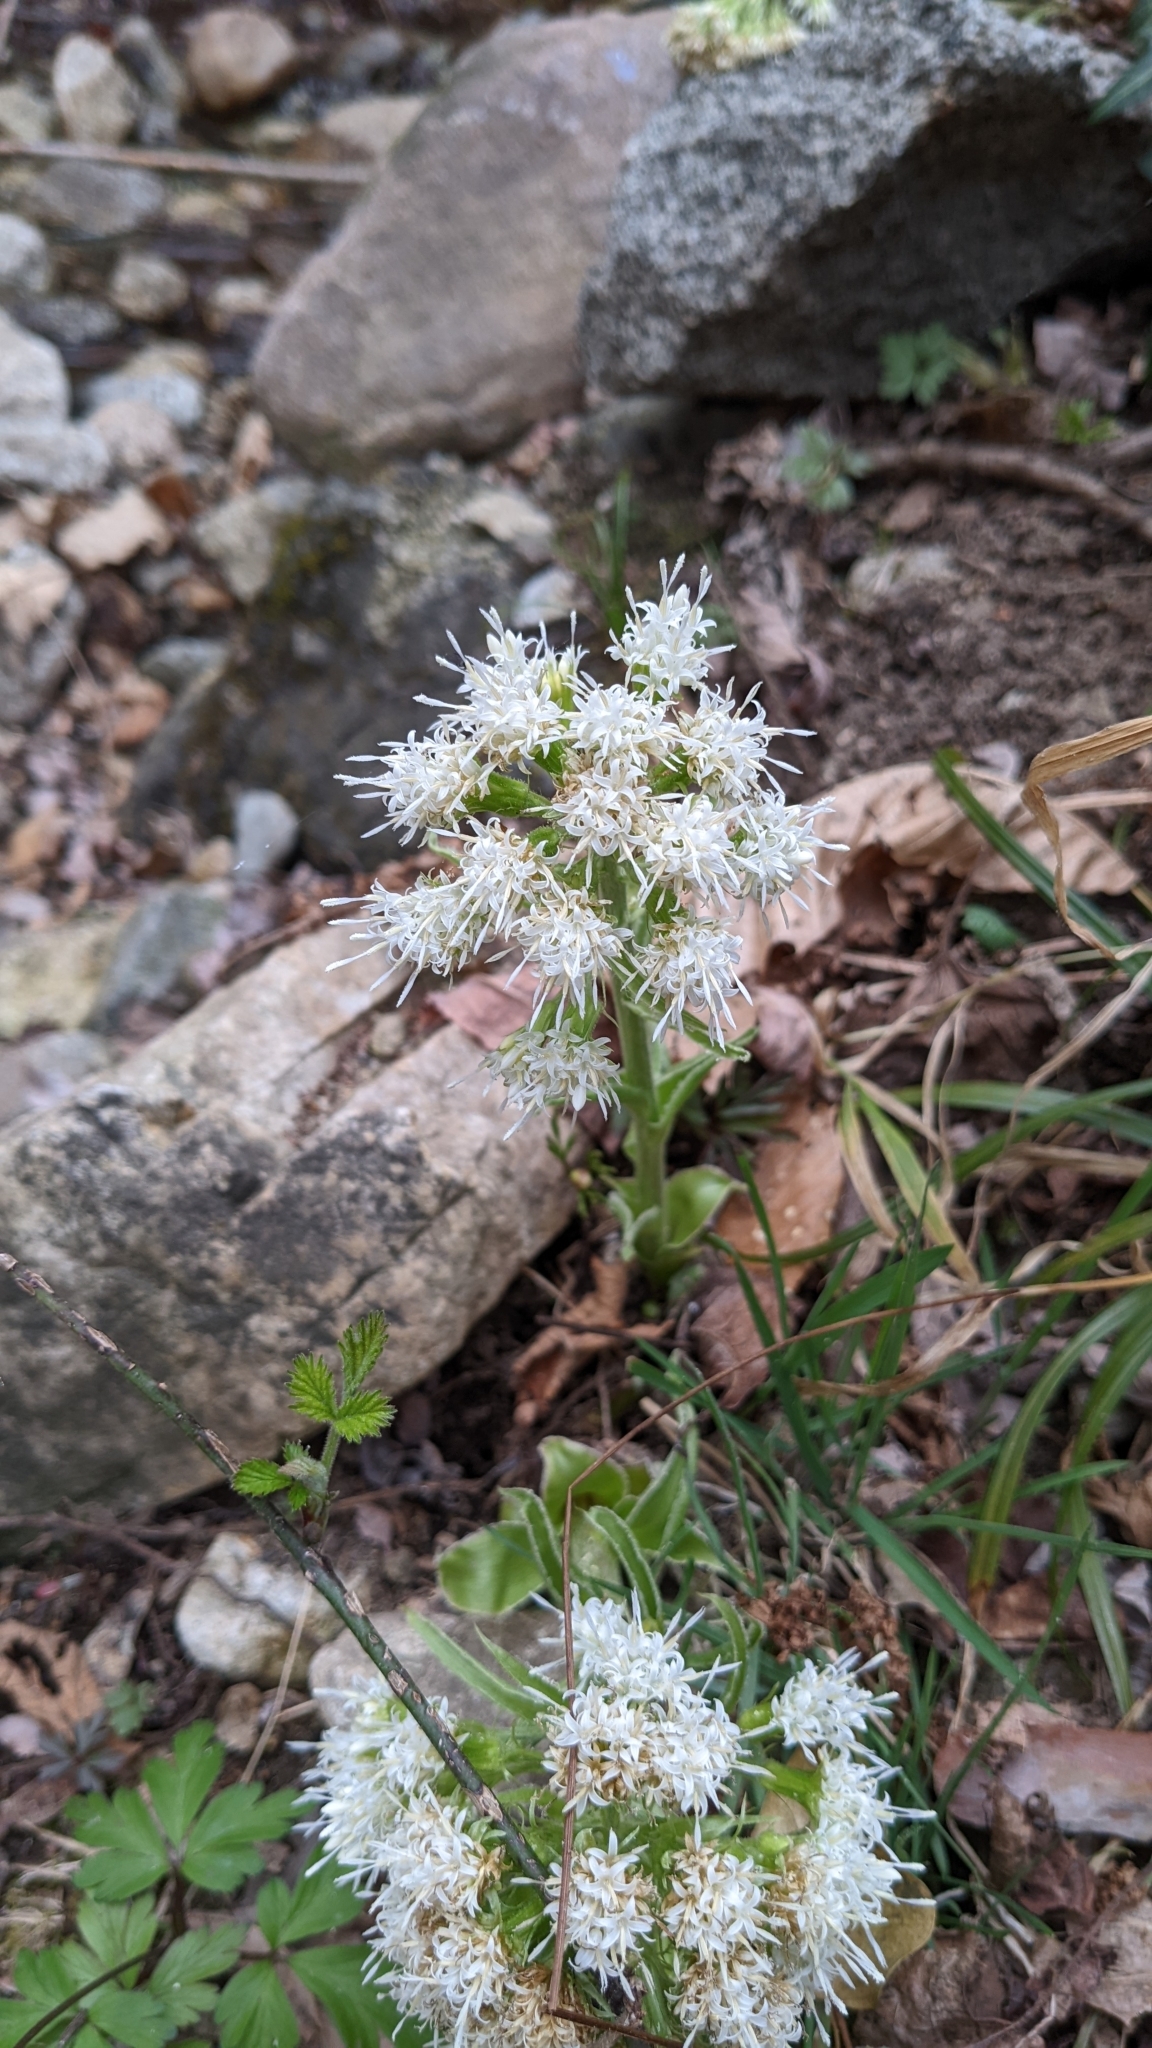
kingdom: Plantae
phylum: Tracheophyta
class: Magnoliopsida
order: Asterales
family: Asteraceae
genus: Petasites
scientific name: Petasites albus
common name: White butterbur
